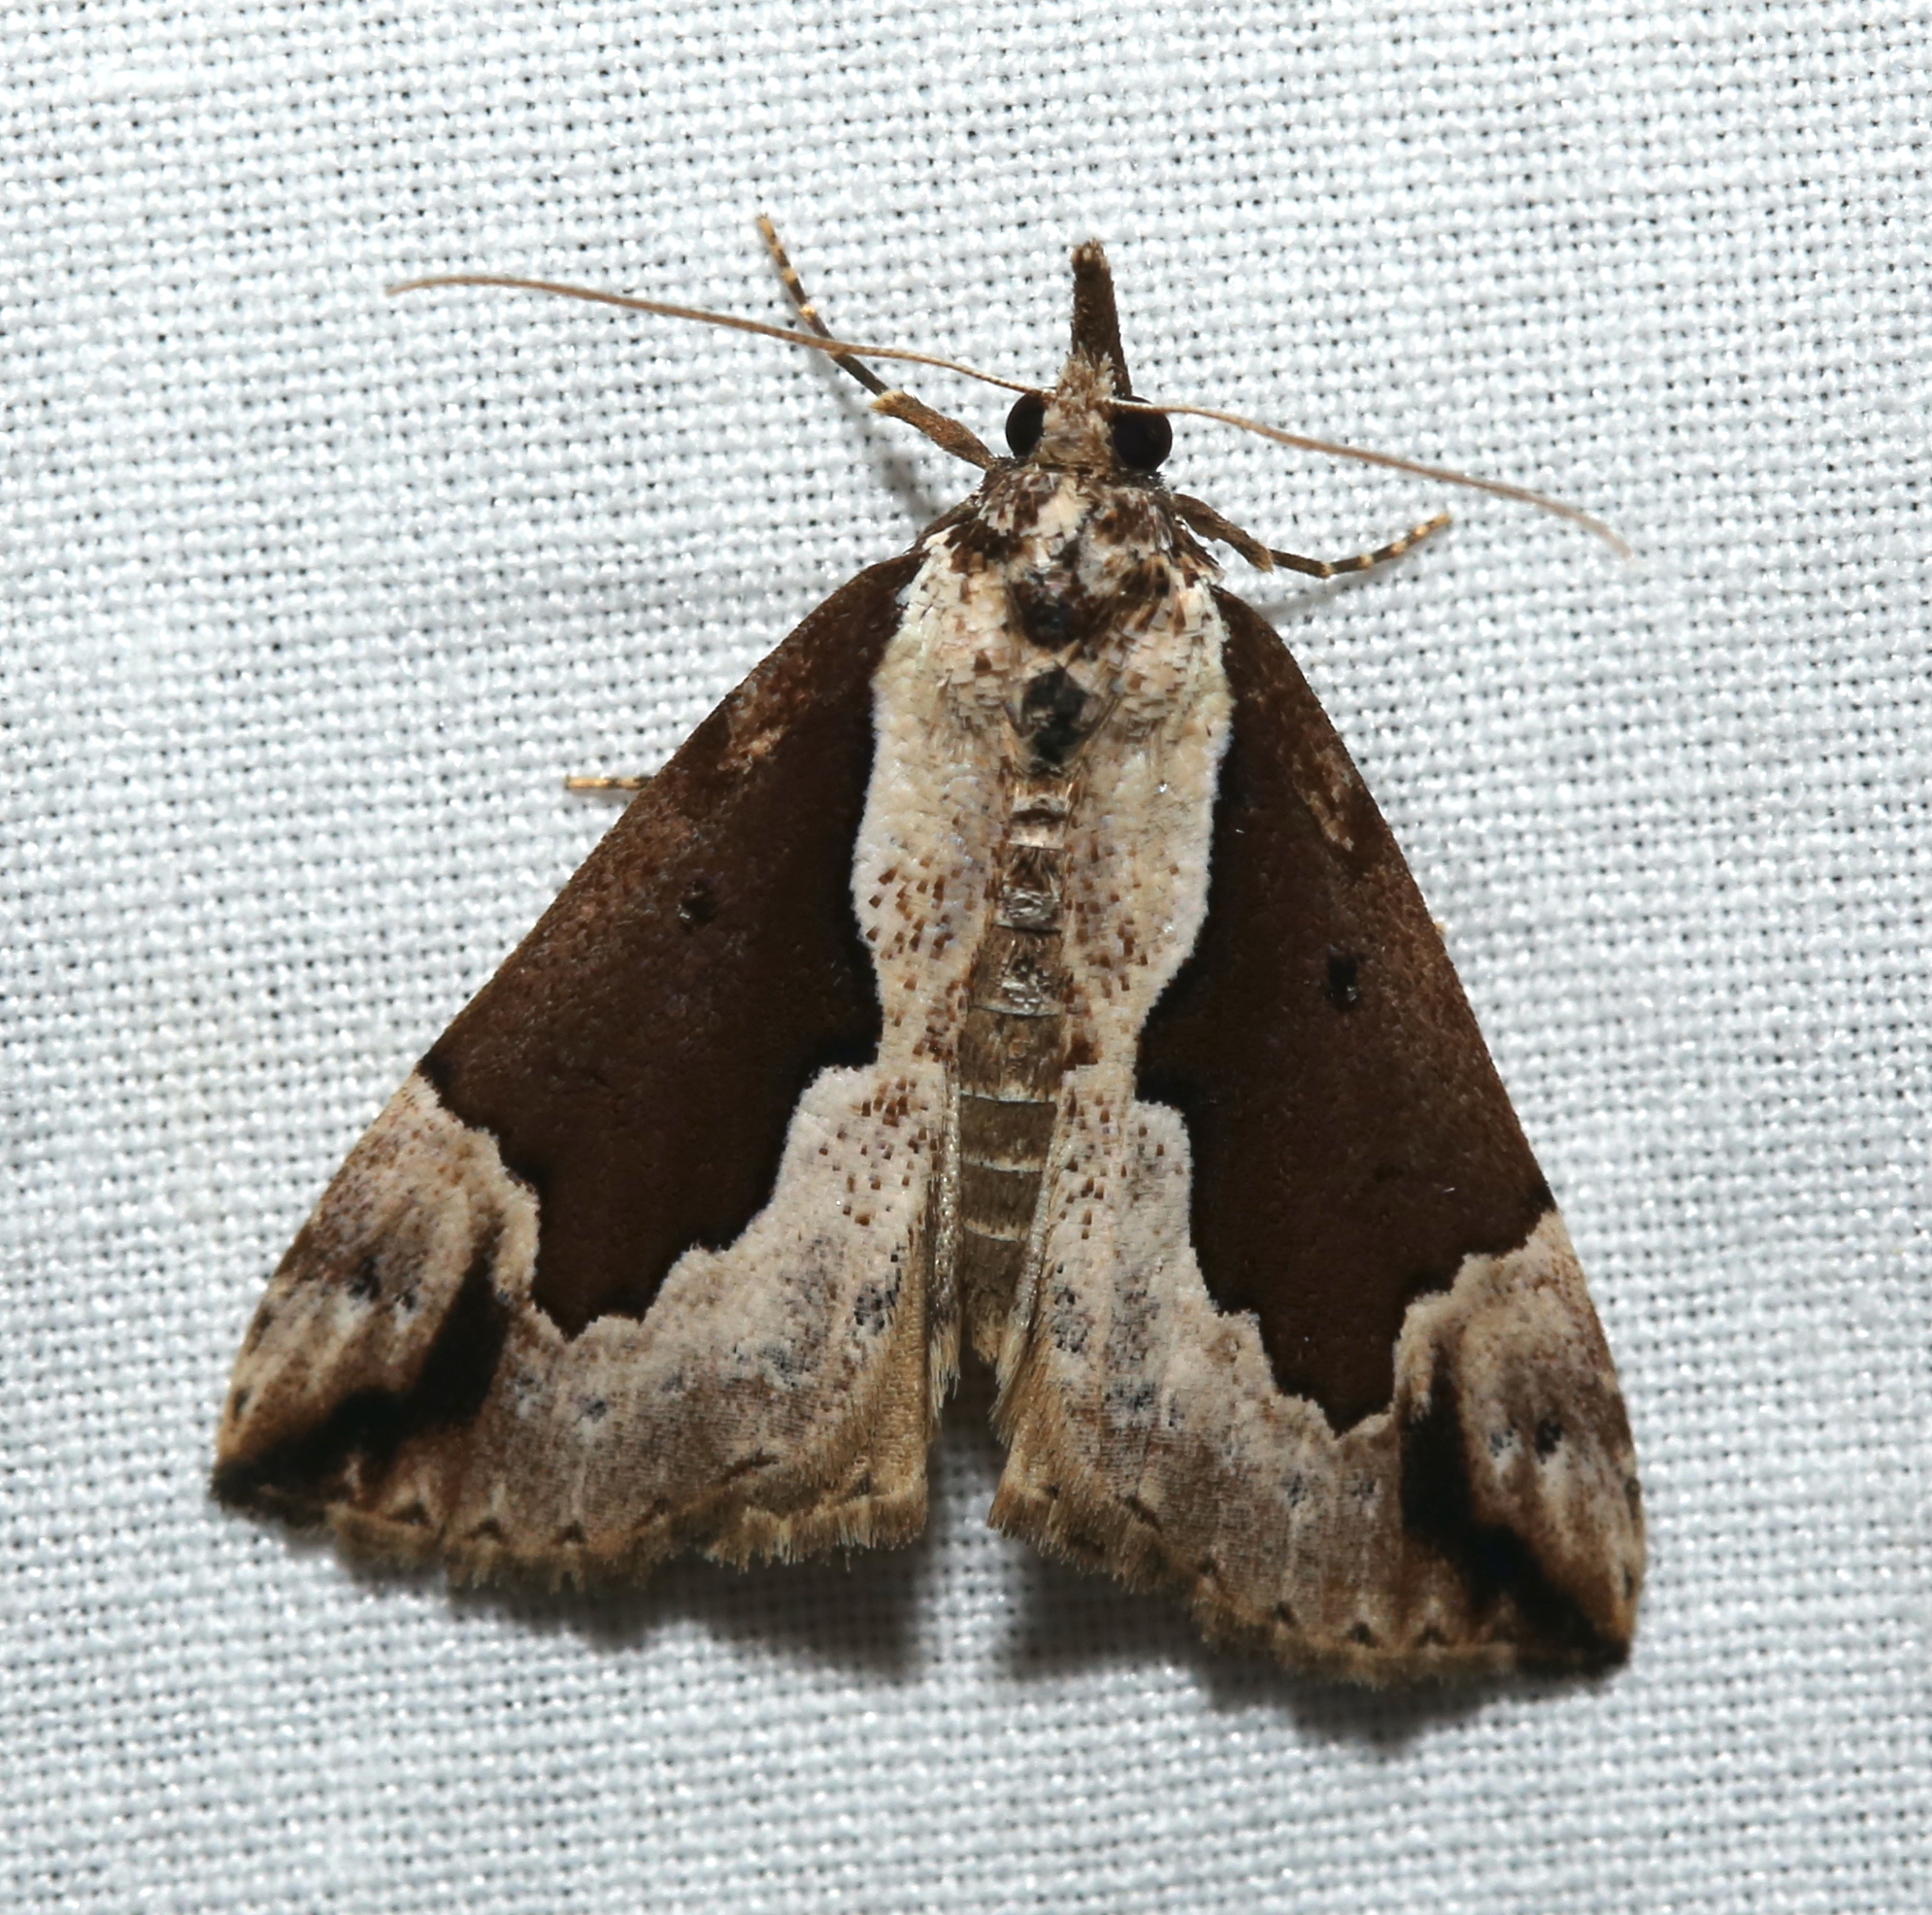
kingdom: Animalia
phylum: Arthropoda
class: Insecta
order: Lepidoptera
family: Erebidae
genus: Hypena
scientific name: Hypena baltimoralis
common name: Baltimore snout
